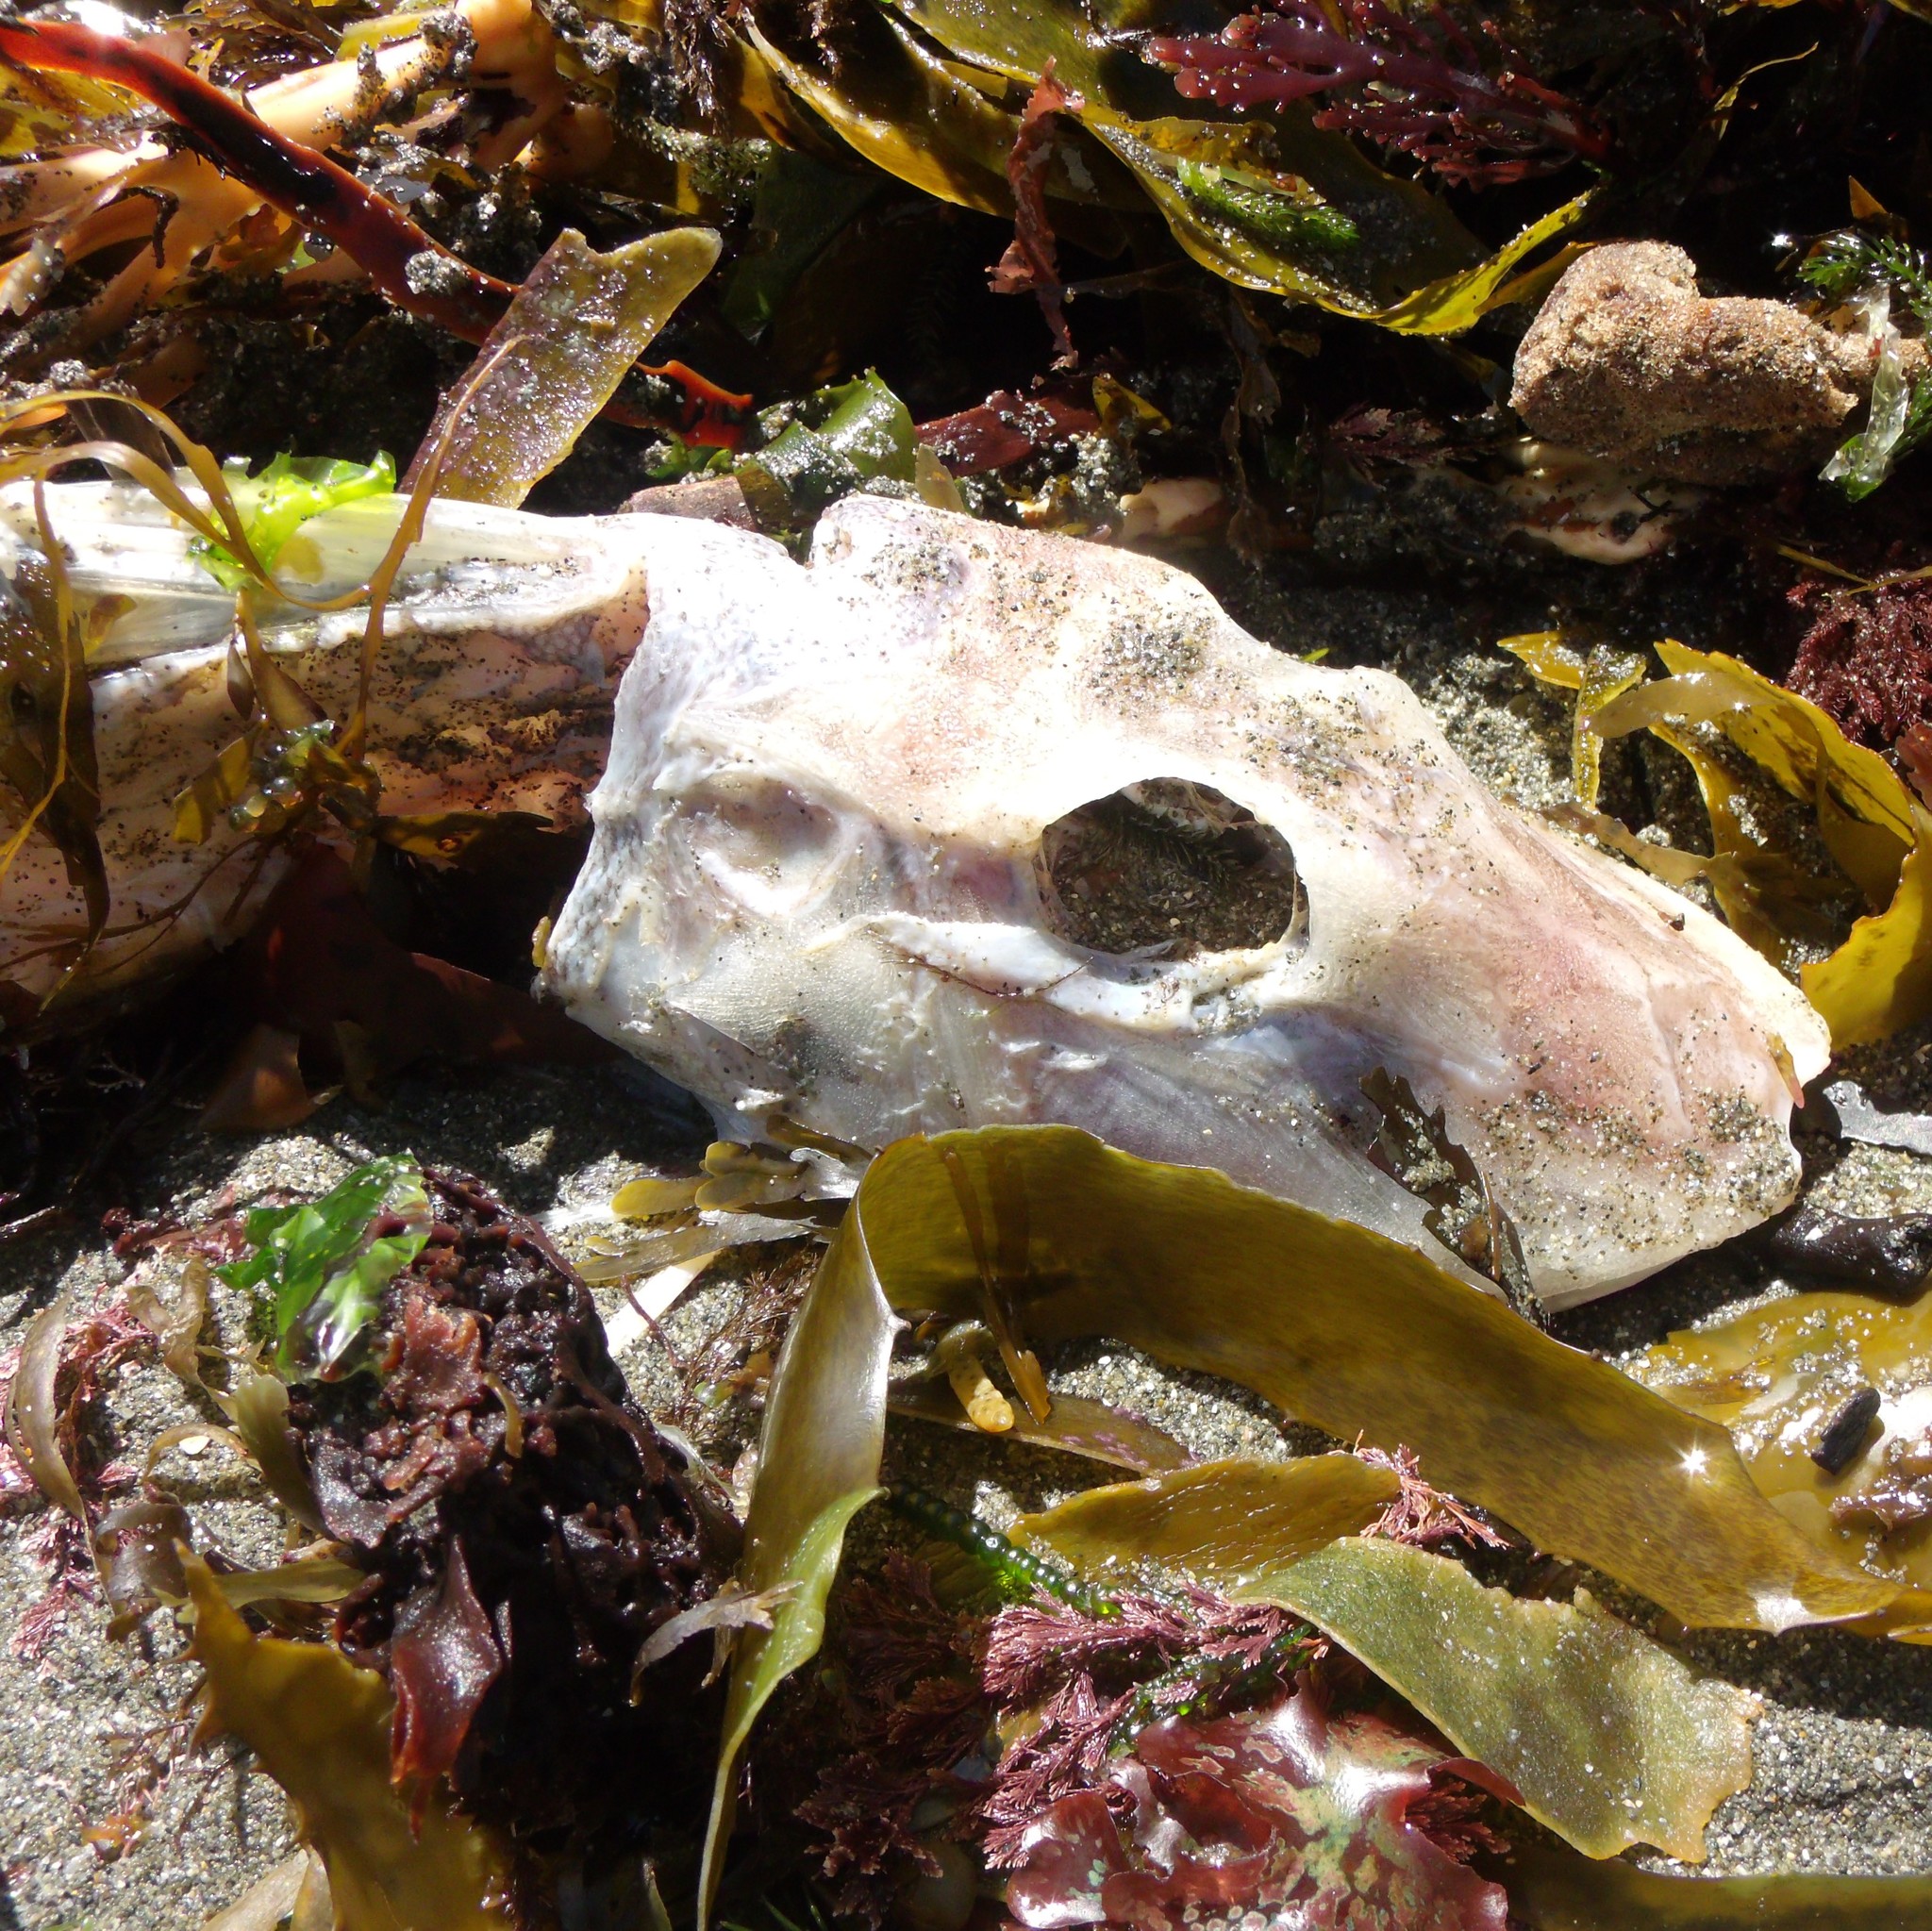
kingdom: Animalia
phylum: Chordata
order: Scorpaeniformes
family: Triglidae
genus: Chelidonichthys
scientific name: Chelidonichthys kumu
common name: Bluefin gurnard
